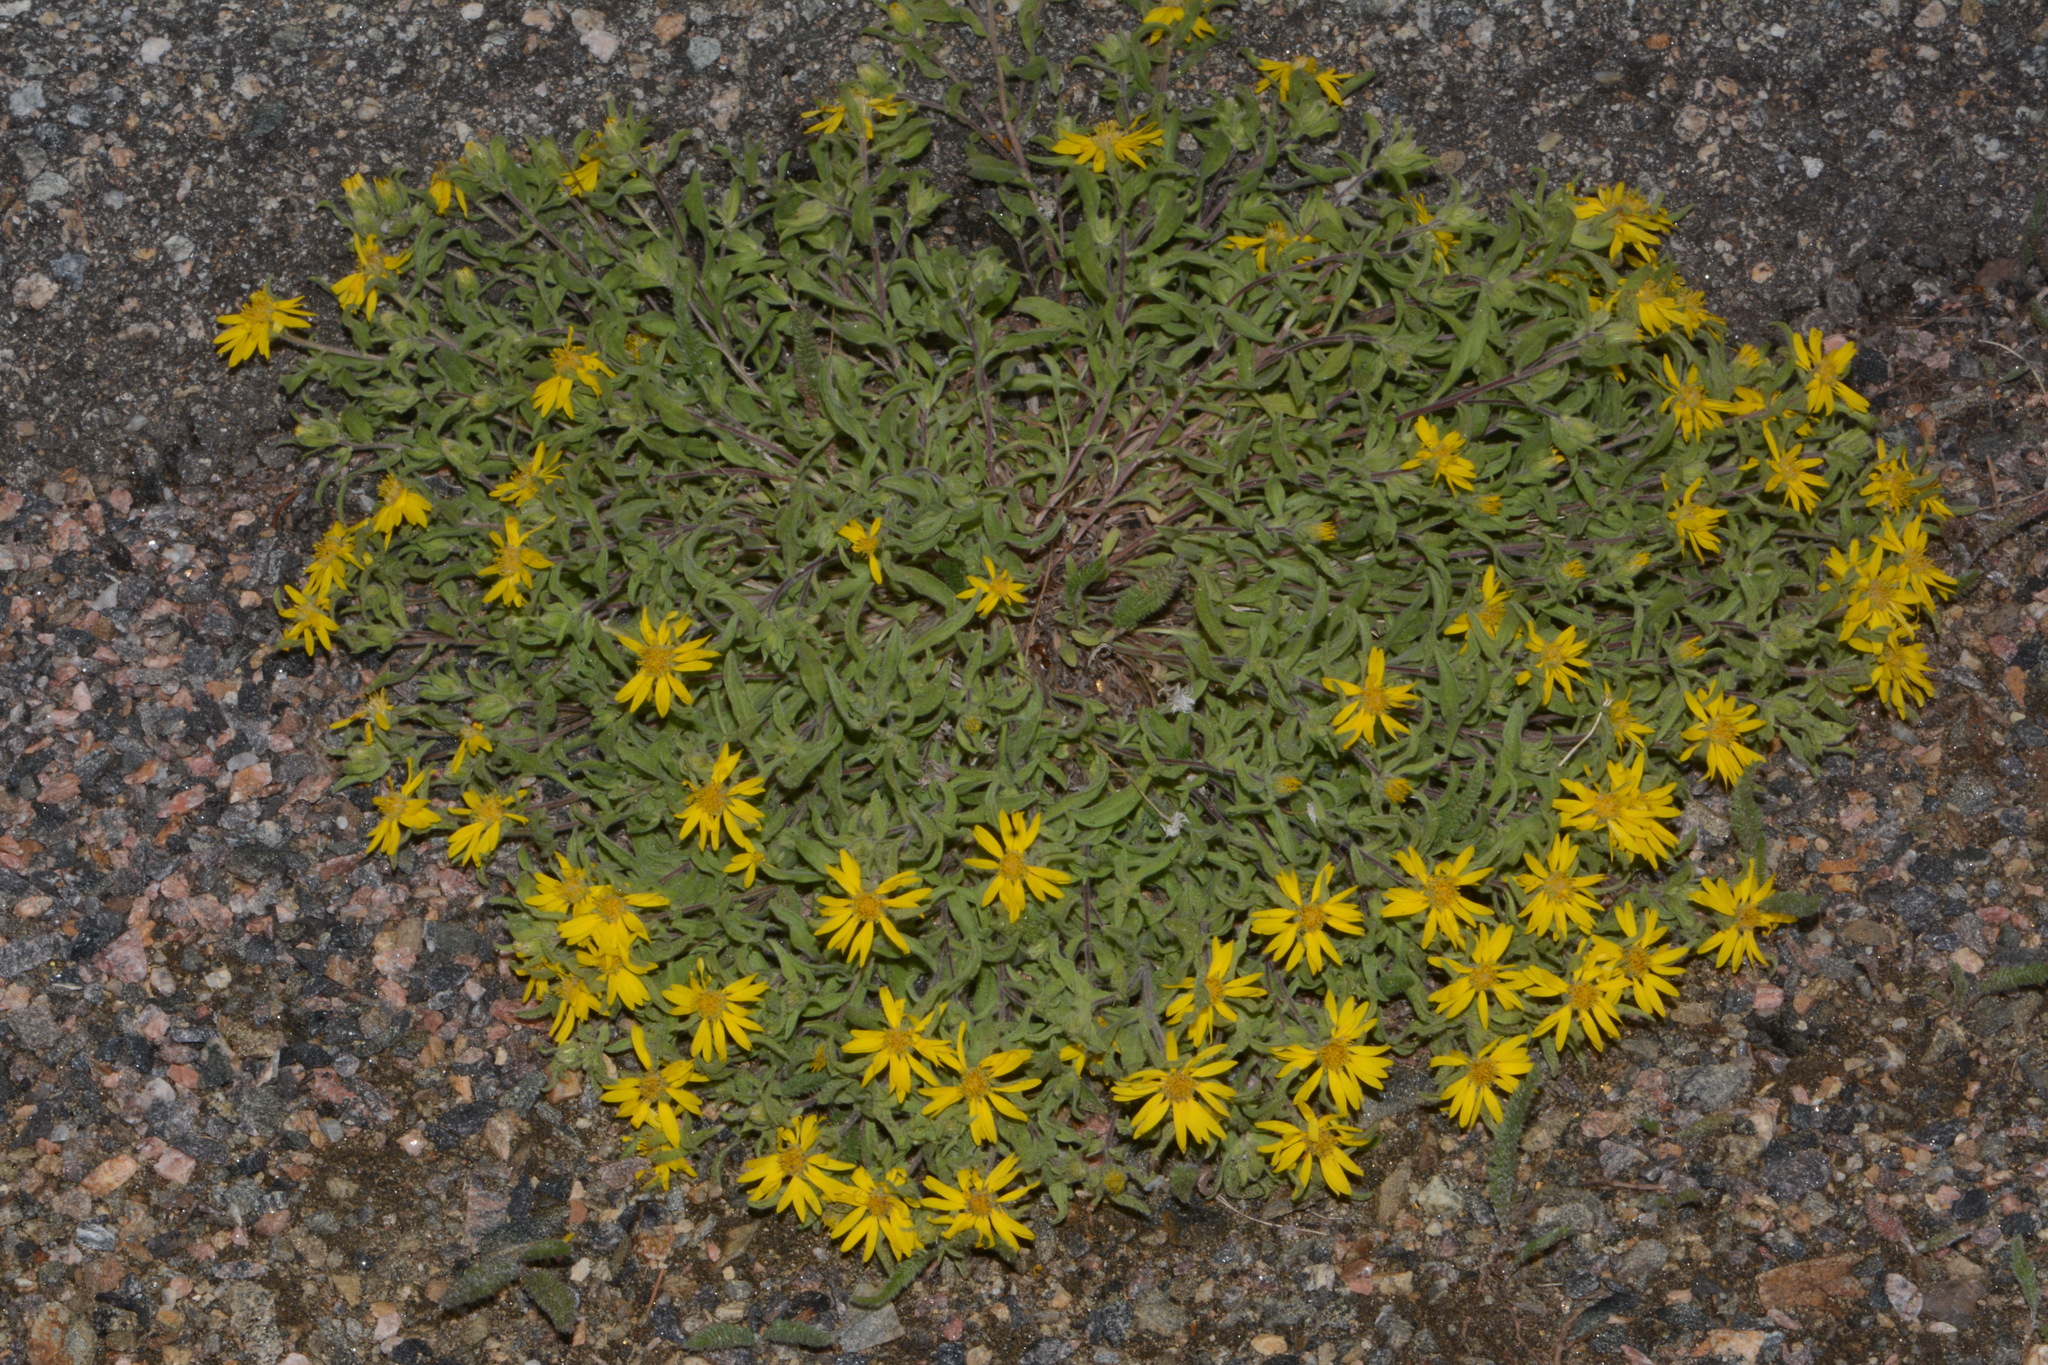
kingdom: Plantae
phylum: Tracheophyta
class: Magnoliopsida
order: Asterales
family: Asteraceae
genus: Heterotheca
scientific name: Heterotheca pumila
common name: Alpine golden-aster
